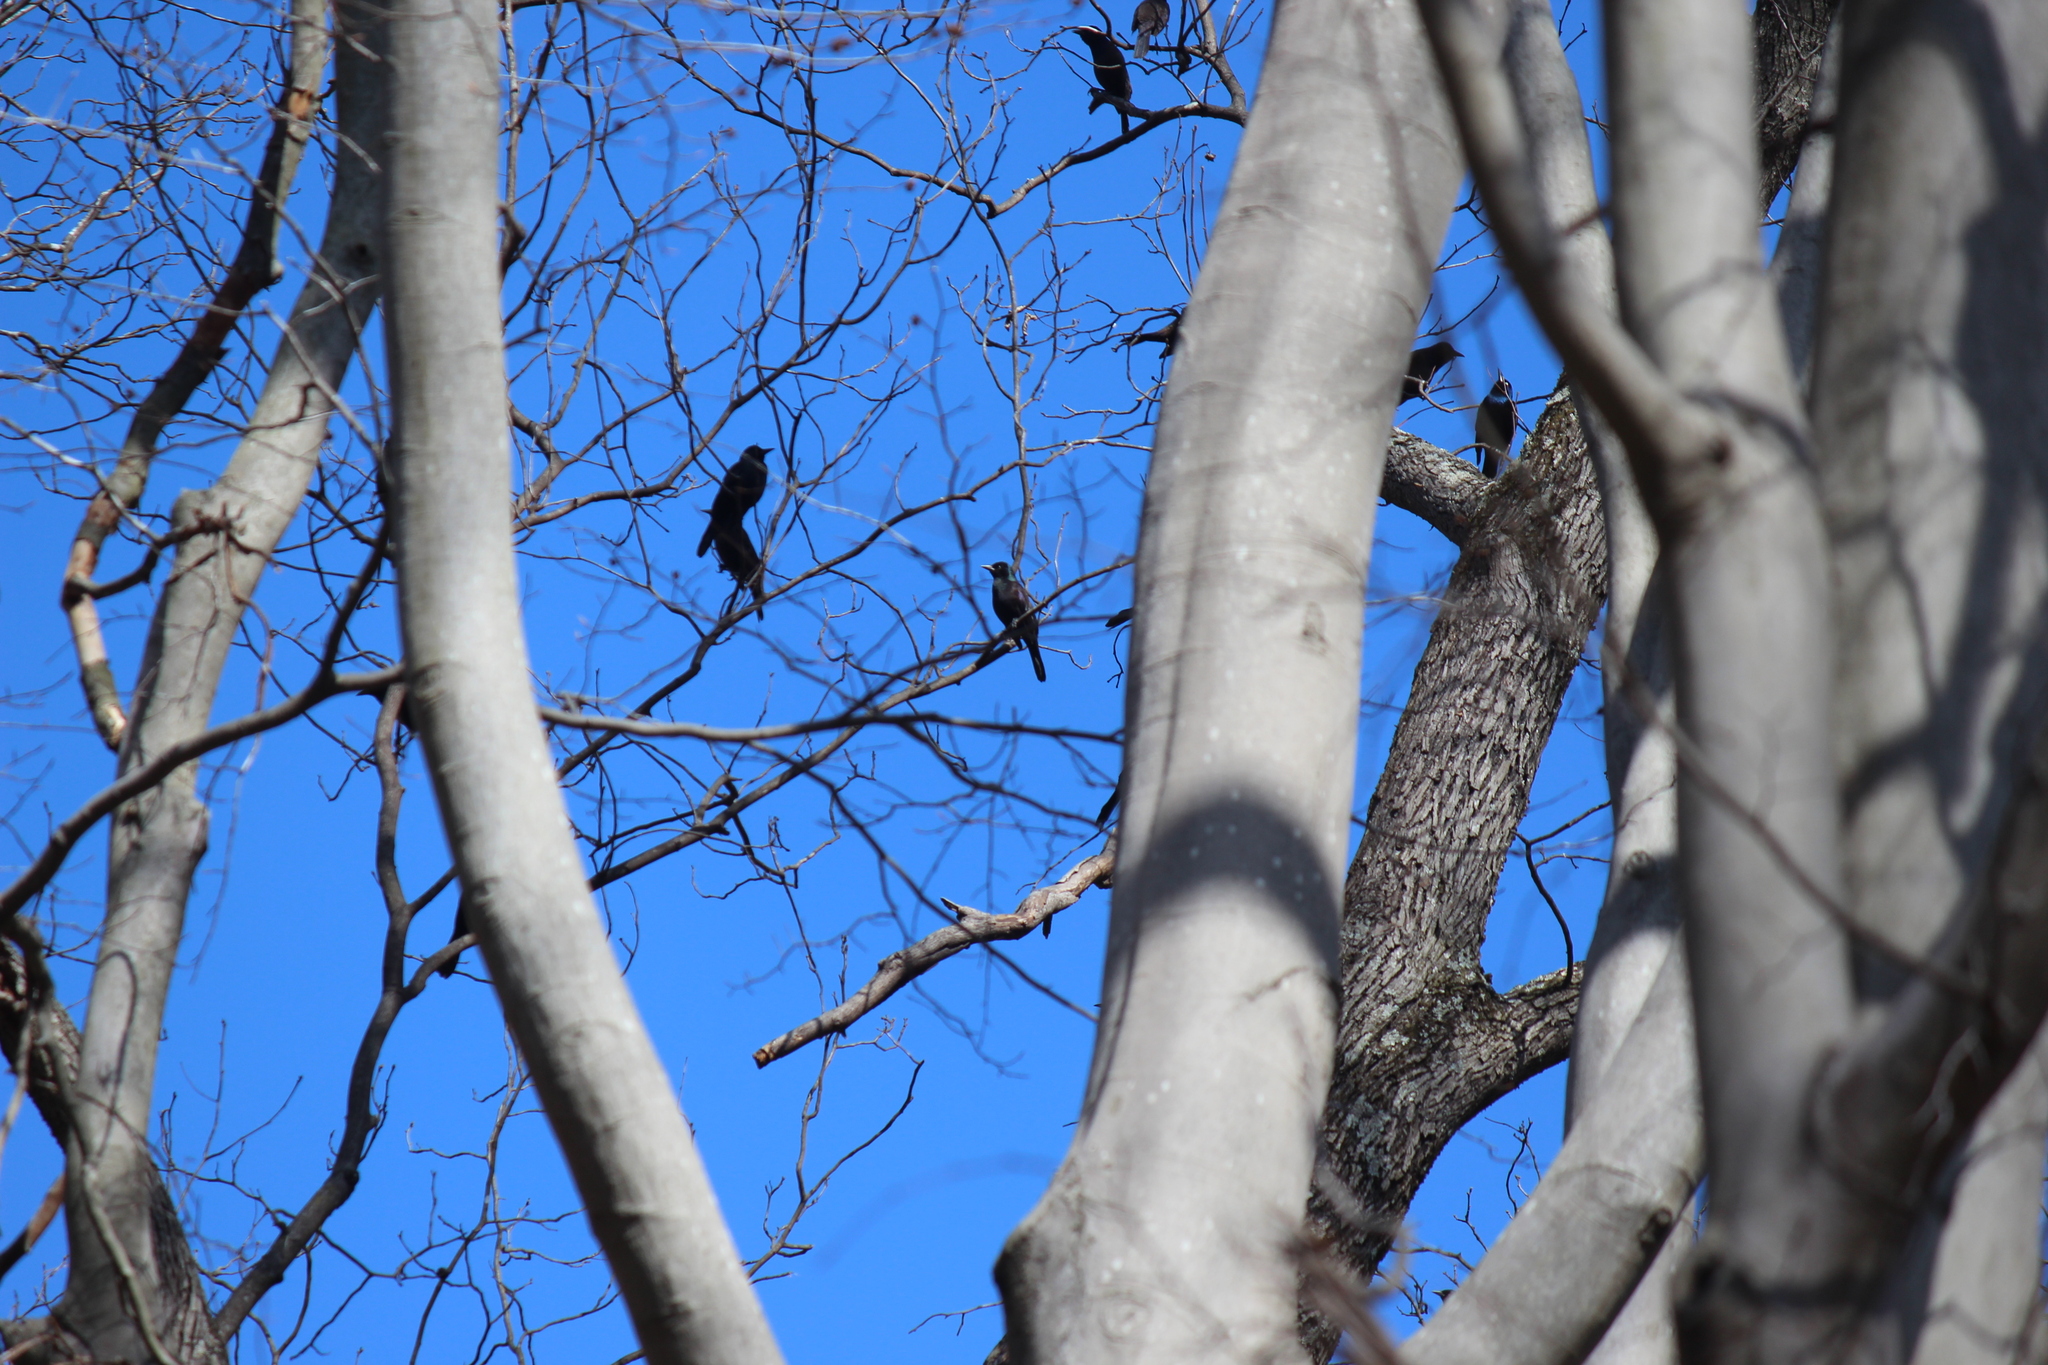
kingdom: Animalia
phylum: Chordata
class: Aves
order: Passeriformes
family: Icteridae
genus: Quiscalus
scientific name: Quiscalus quiscula
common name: Common grackle
